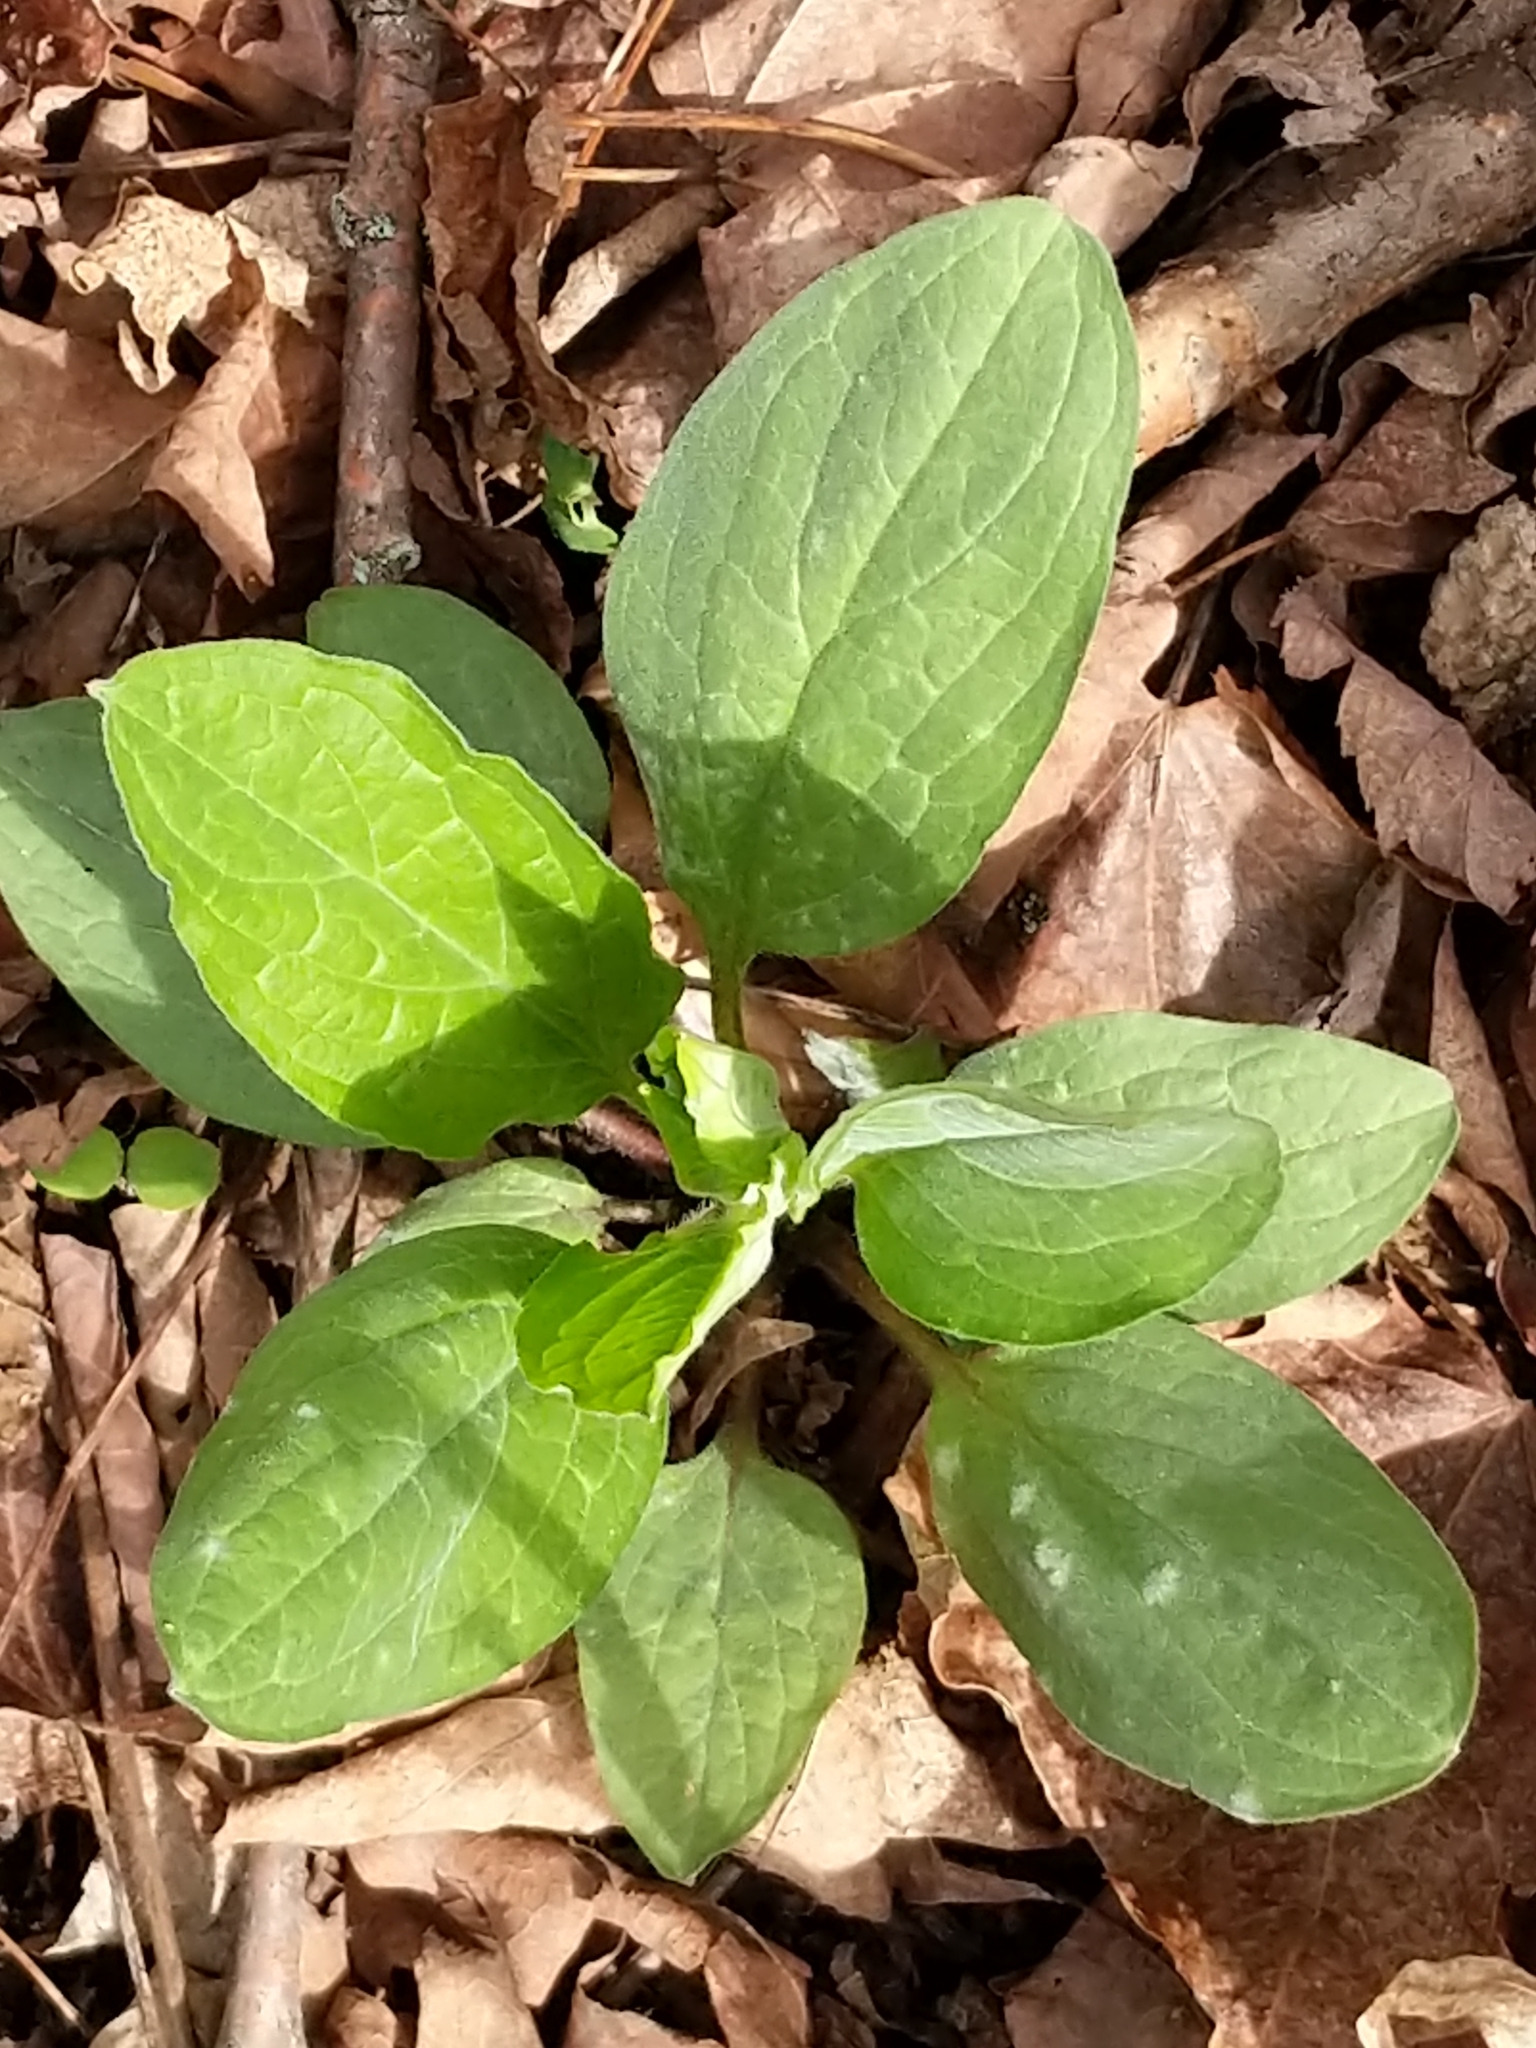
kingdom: Plantae
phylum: Tracheophyta
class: Magnoliopsida
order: Boraginales
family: Boraginaceae
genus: Hackelia
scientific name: Hackelia virginiana
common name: Beggar's-lice
